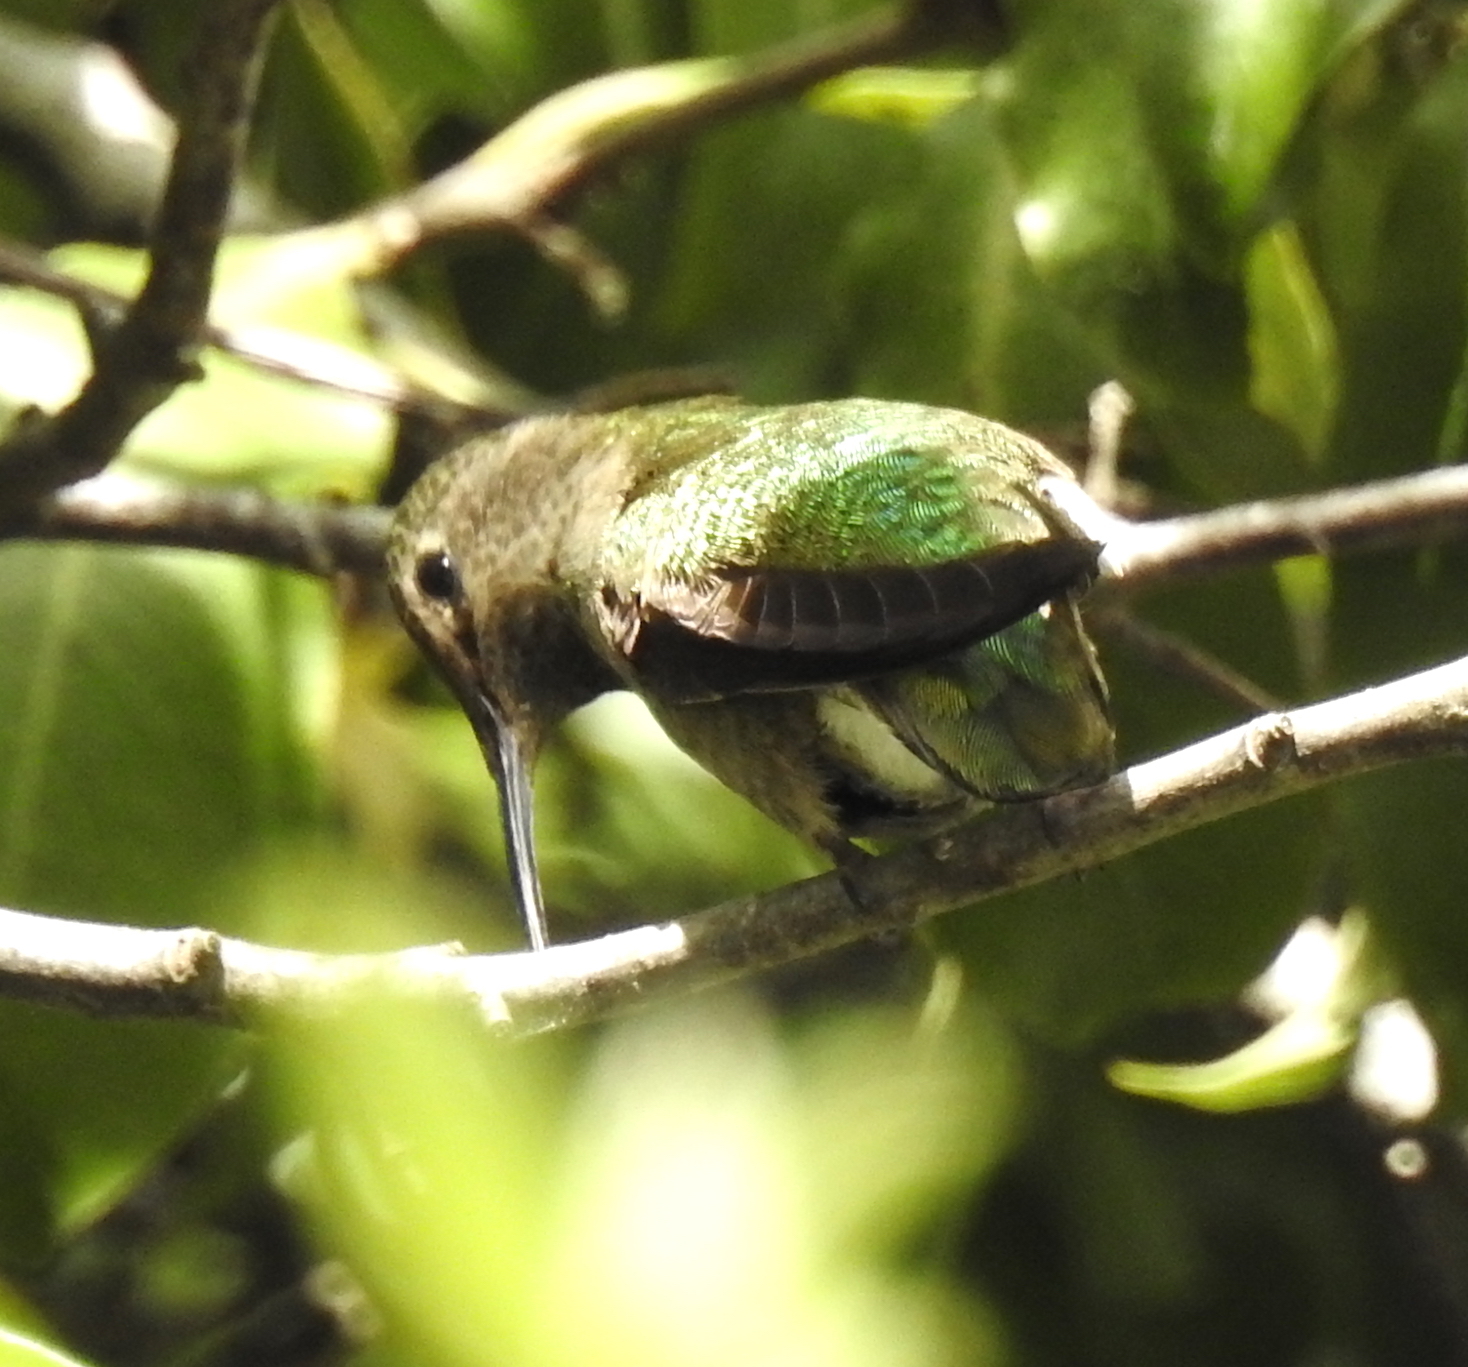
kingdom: Animalia
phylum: Chordata
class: Aves
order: Apodiformes
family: Trochilidae
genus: Calypte
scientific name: Calypte anna
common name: Anna's hummingbird
